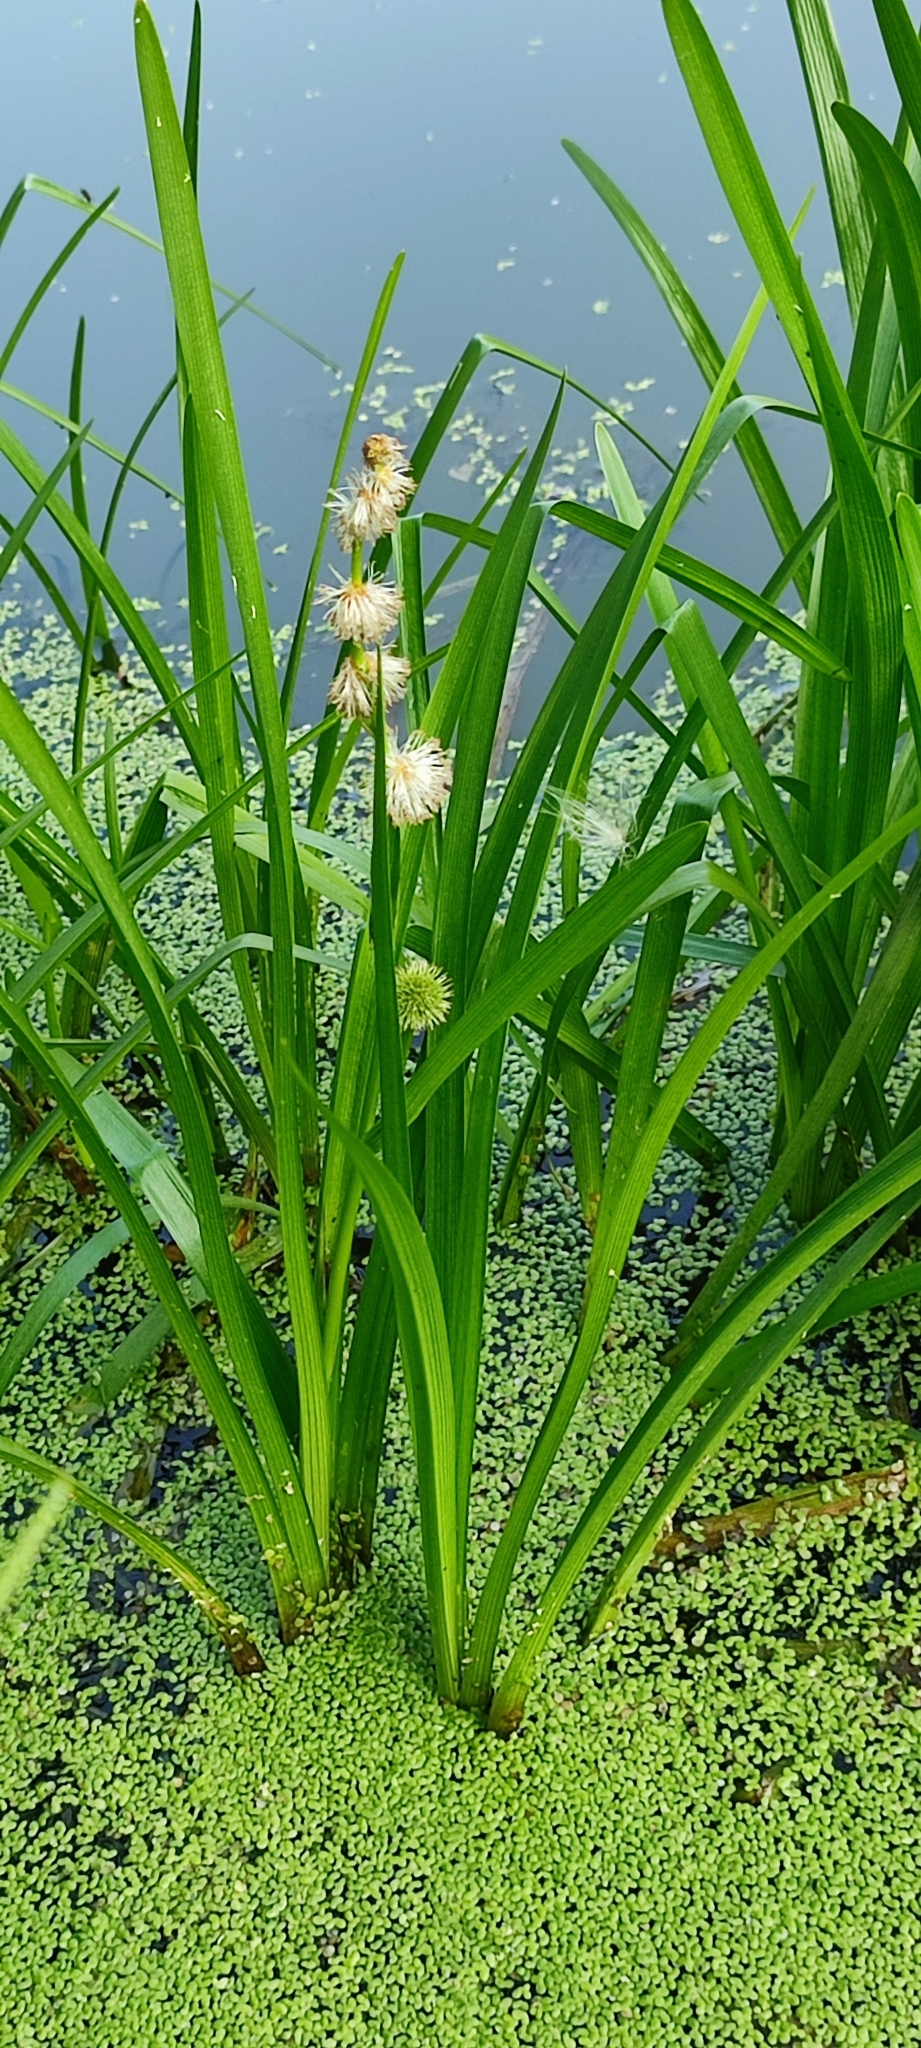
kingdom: Plantae
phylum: Tracheophyta
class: Liliopsida
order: Poales
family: Typhaceae
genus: Sparganium
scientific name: Sparganium emersum
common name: Unbranched bur-reed
